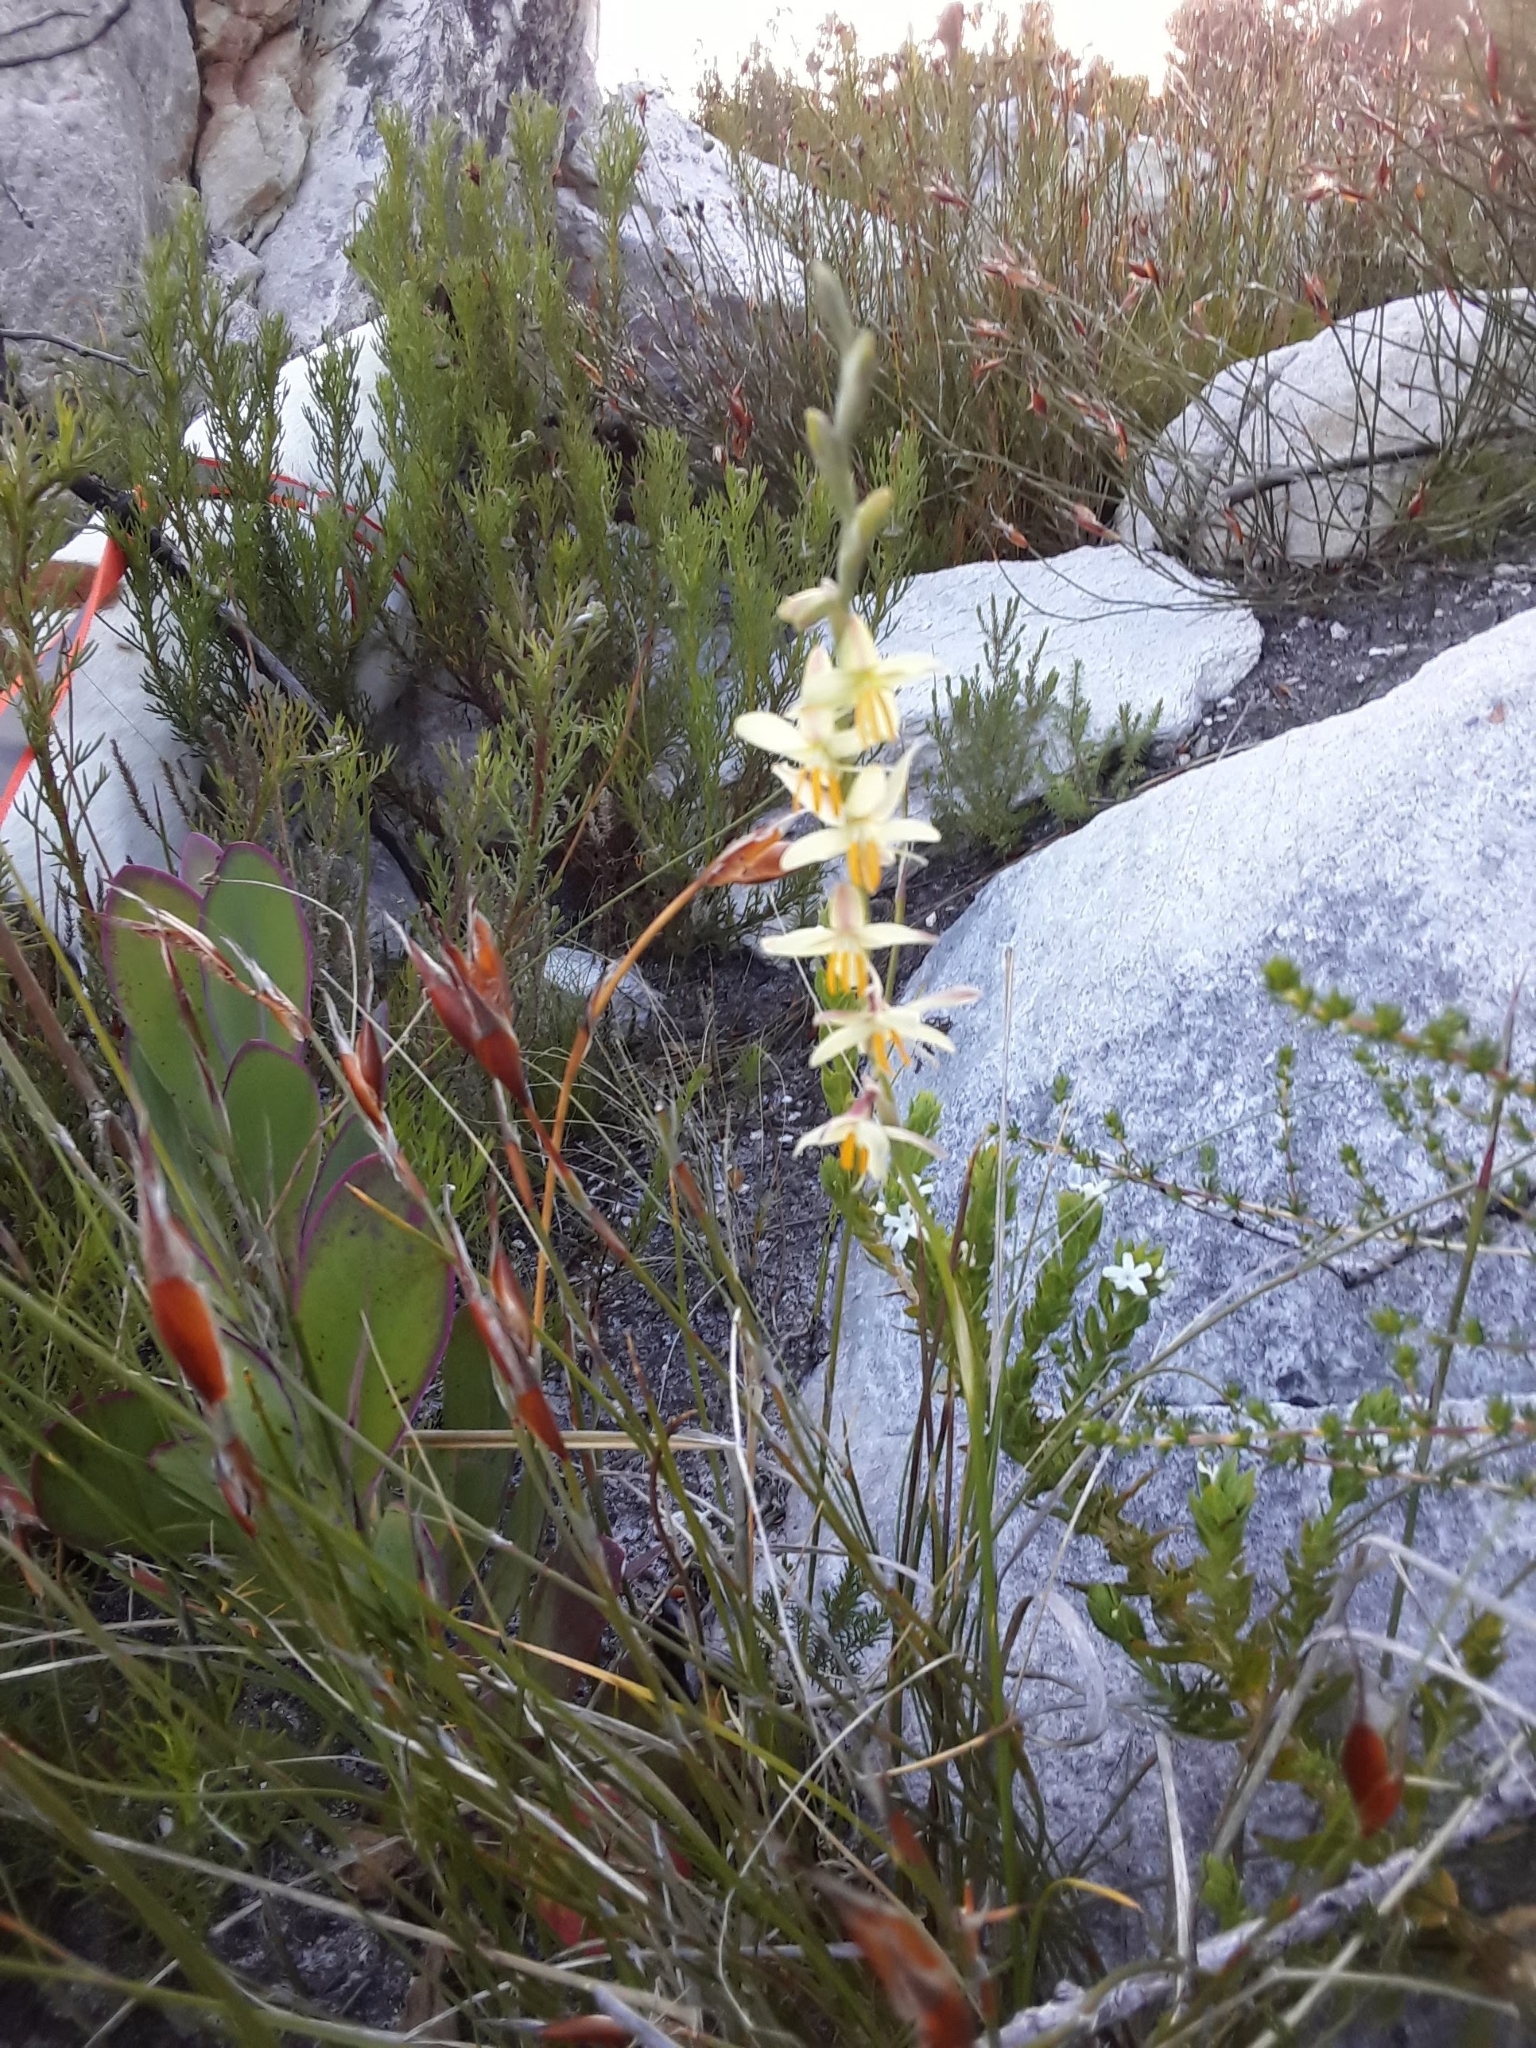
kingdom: Plantae
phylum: Tracheophyta
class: Liliopsida
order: Asparagales
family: Iridaceae
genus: Hesperantha
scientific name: Hesperantha radiata
